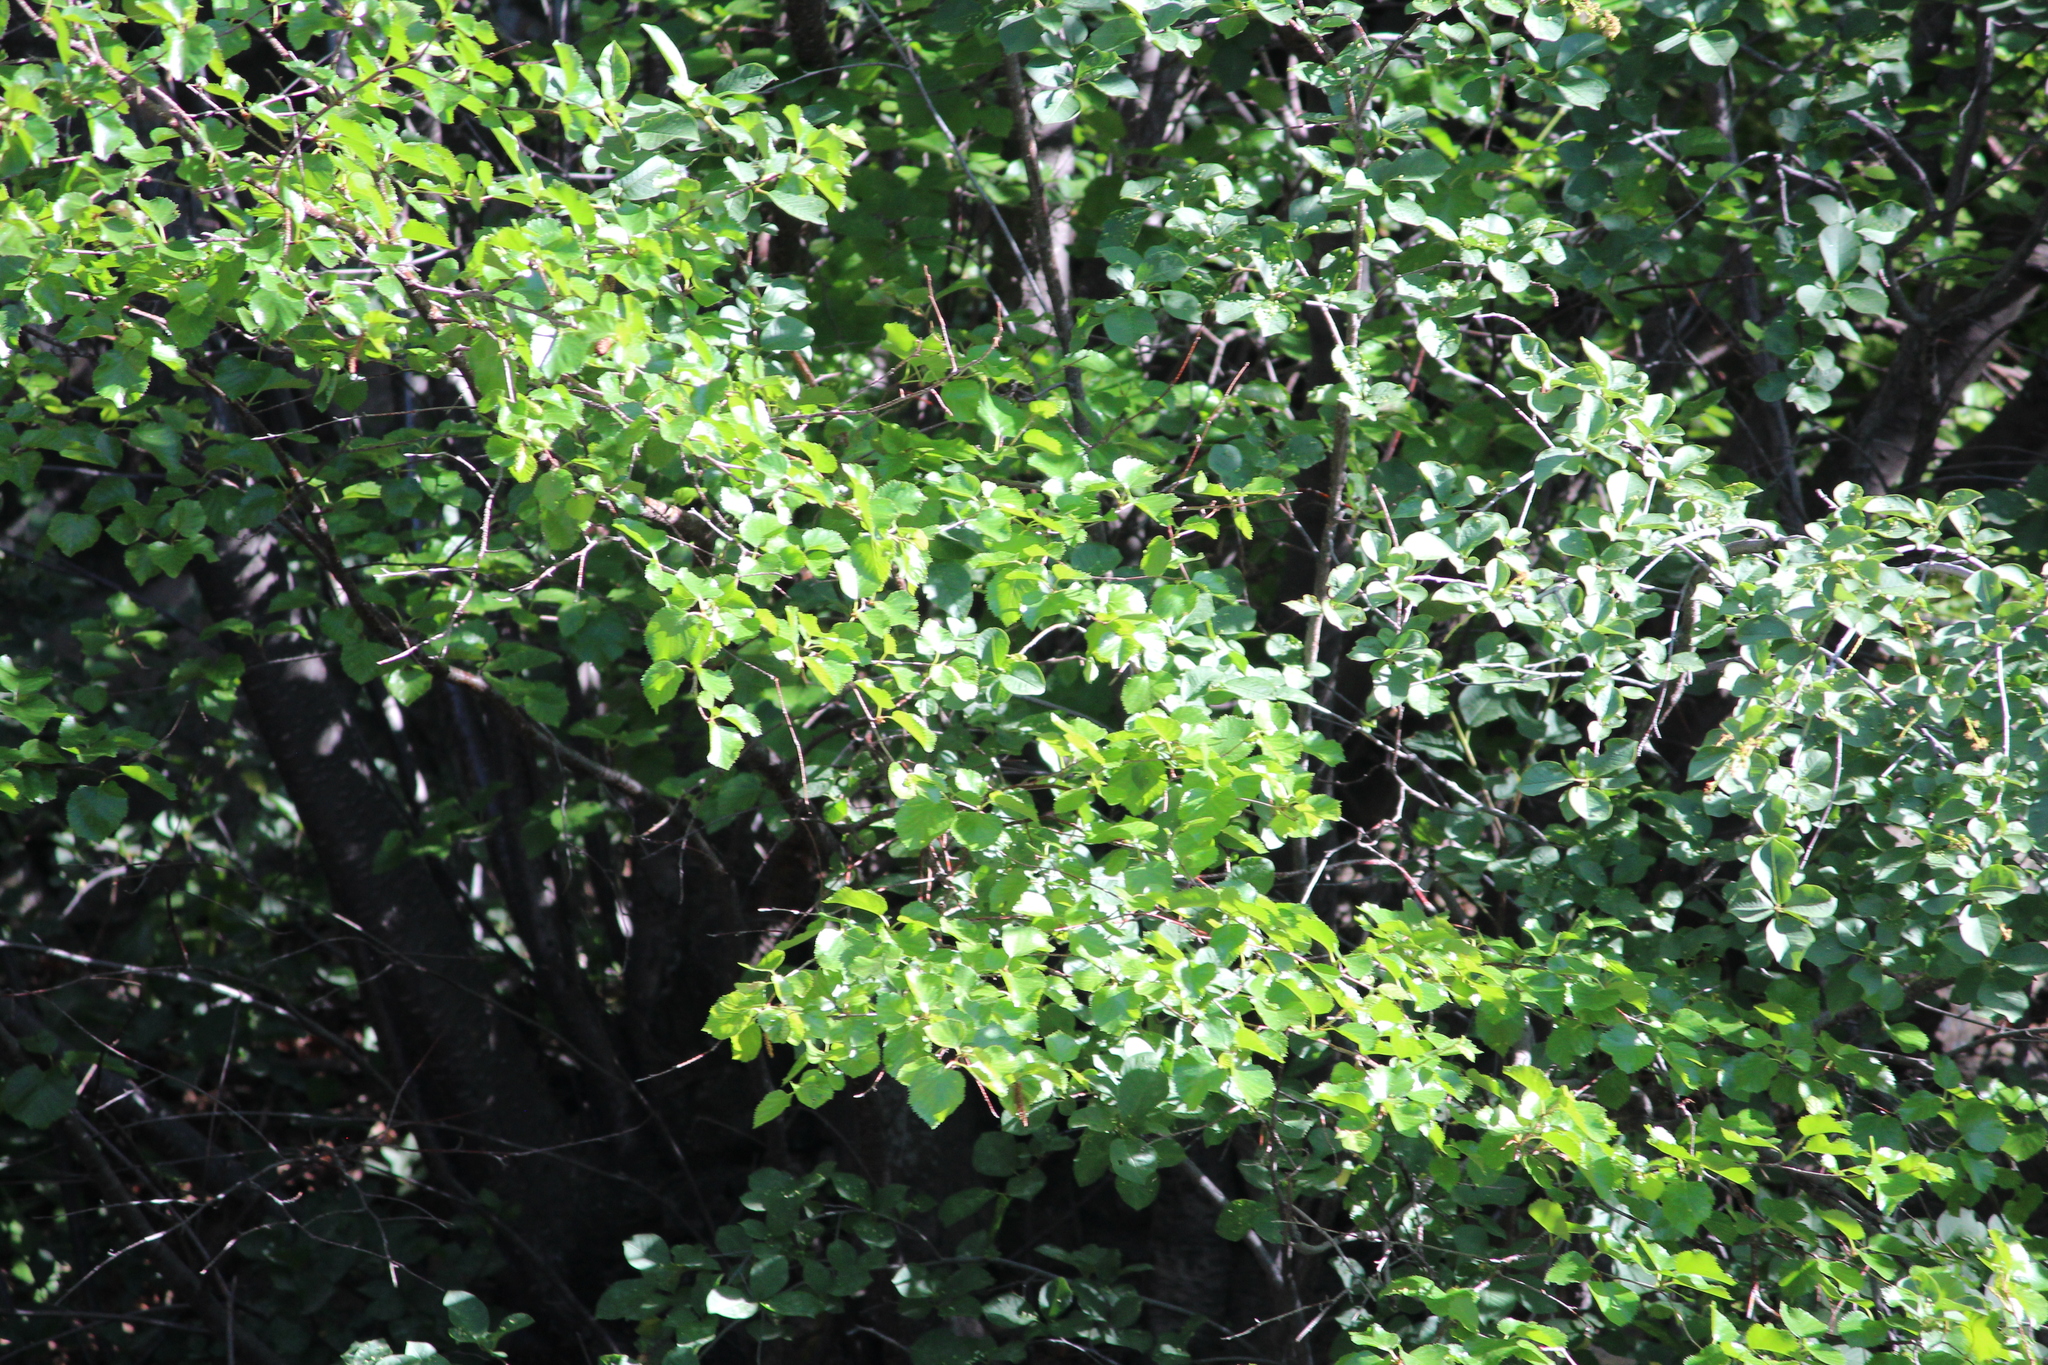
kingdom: Plantae
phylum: Tracheophyta
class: Magnoliopsida
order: Fagales
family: Betulaceae
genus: Betula
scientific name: Betula occidentalis
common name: River birch
